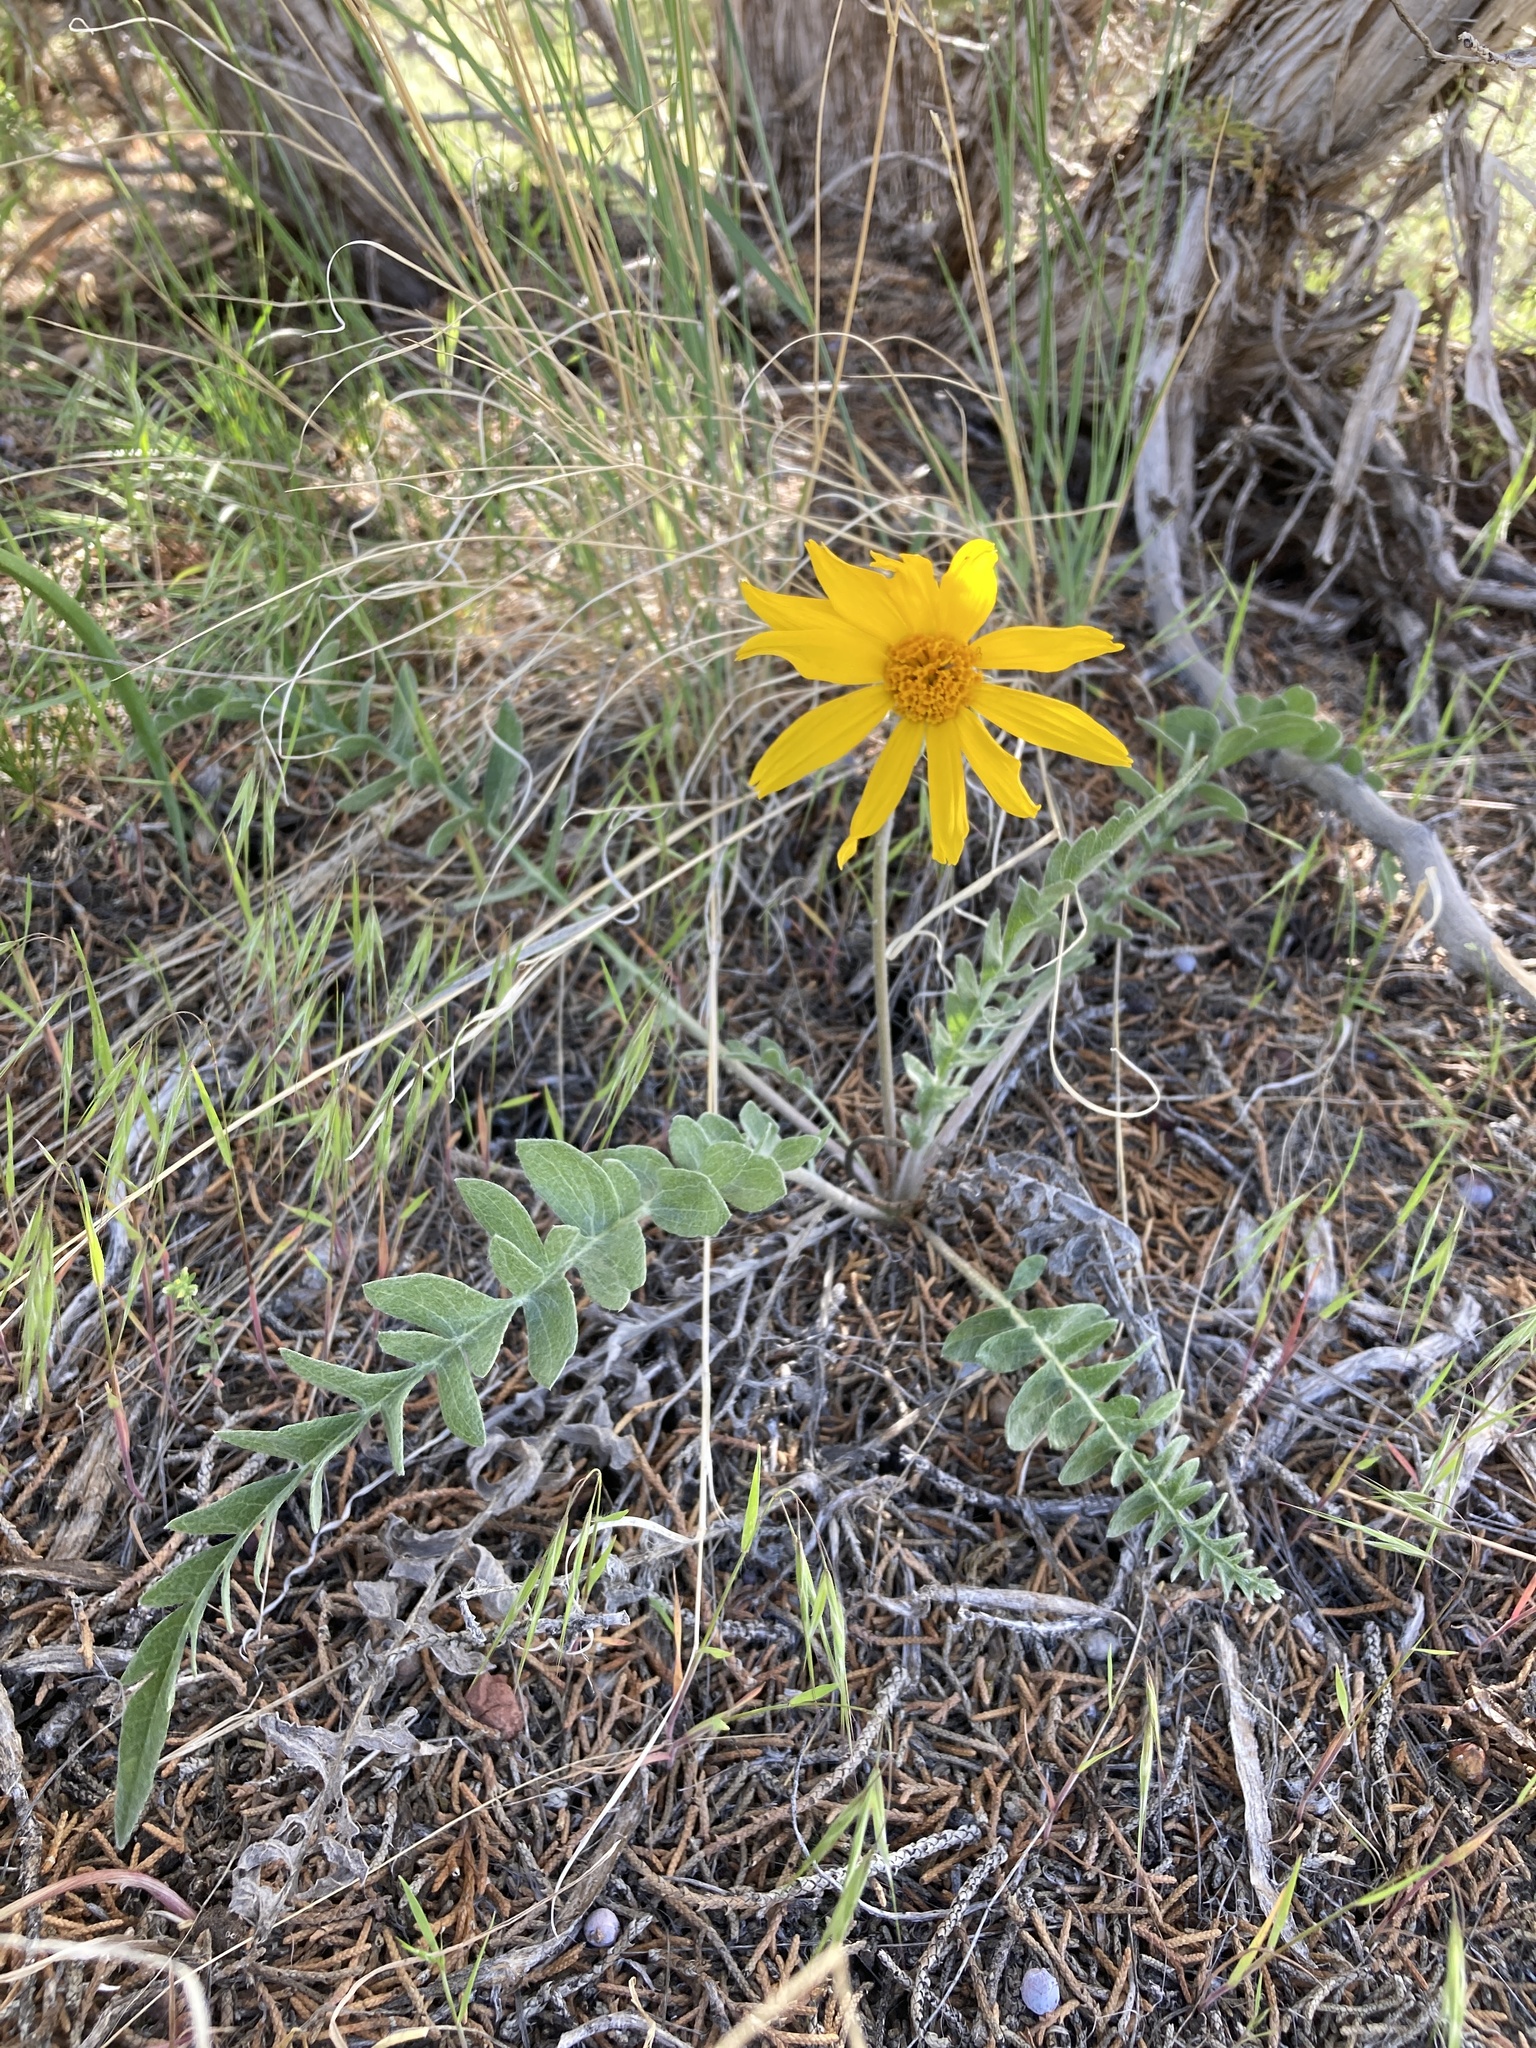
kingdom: Plantae
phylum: Tracheophyta
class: Magnoliopsida
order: Asterales
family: Asteraceae
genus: Balsamorhiza
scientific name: Balsamorhiza incana
